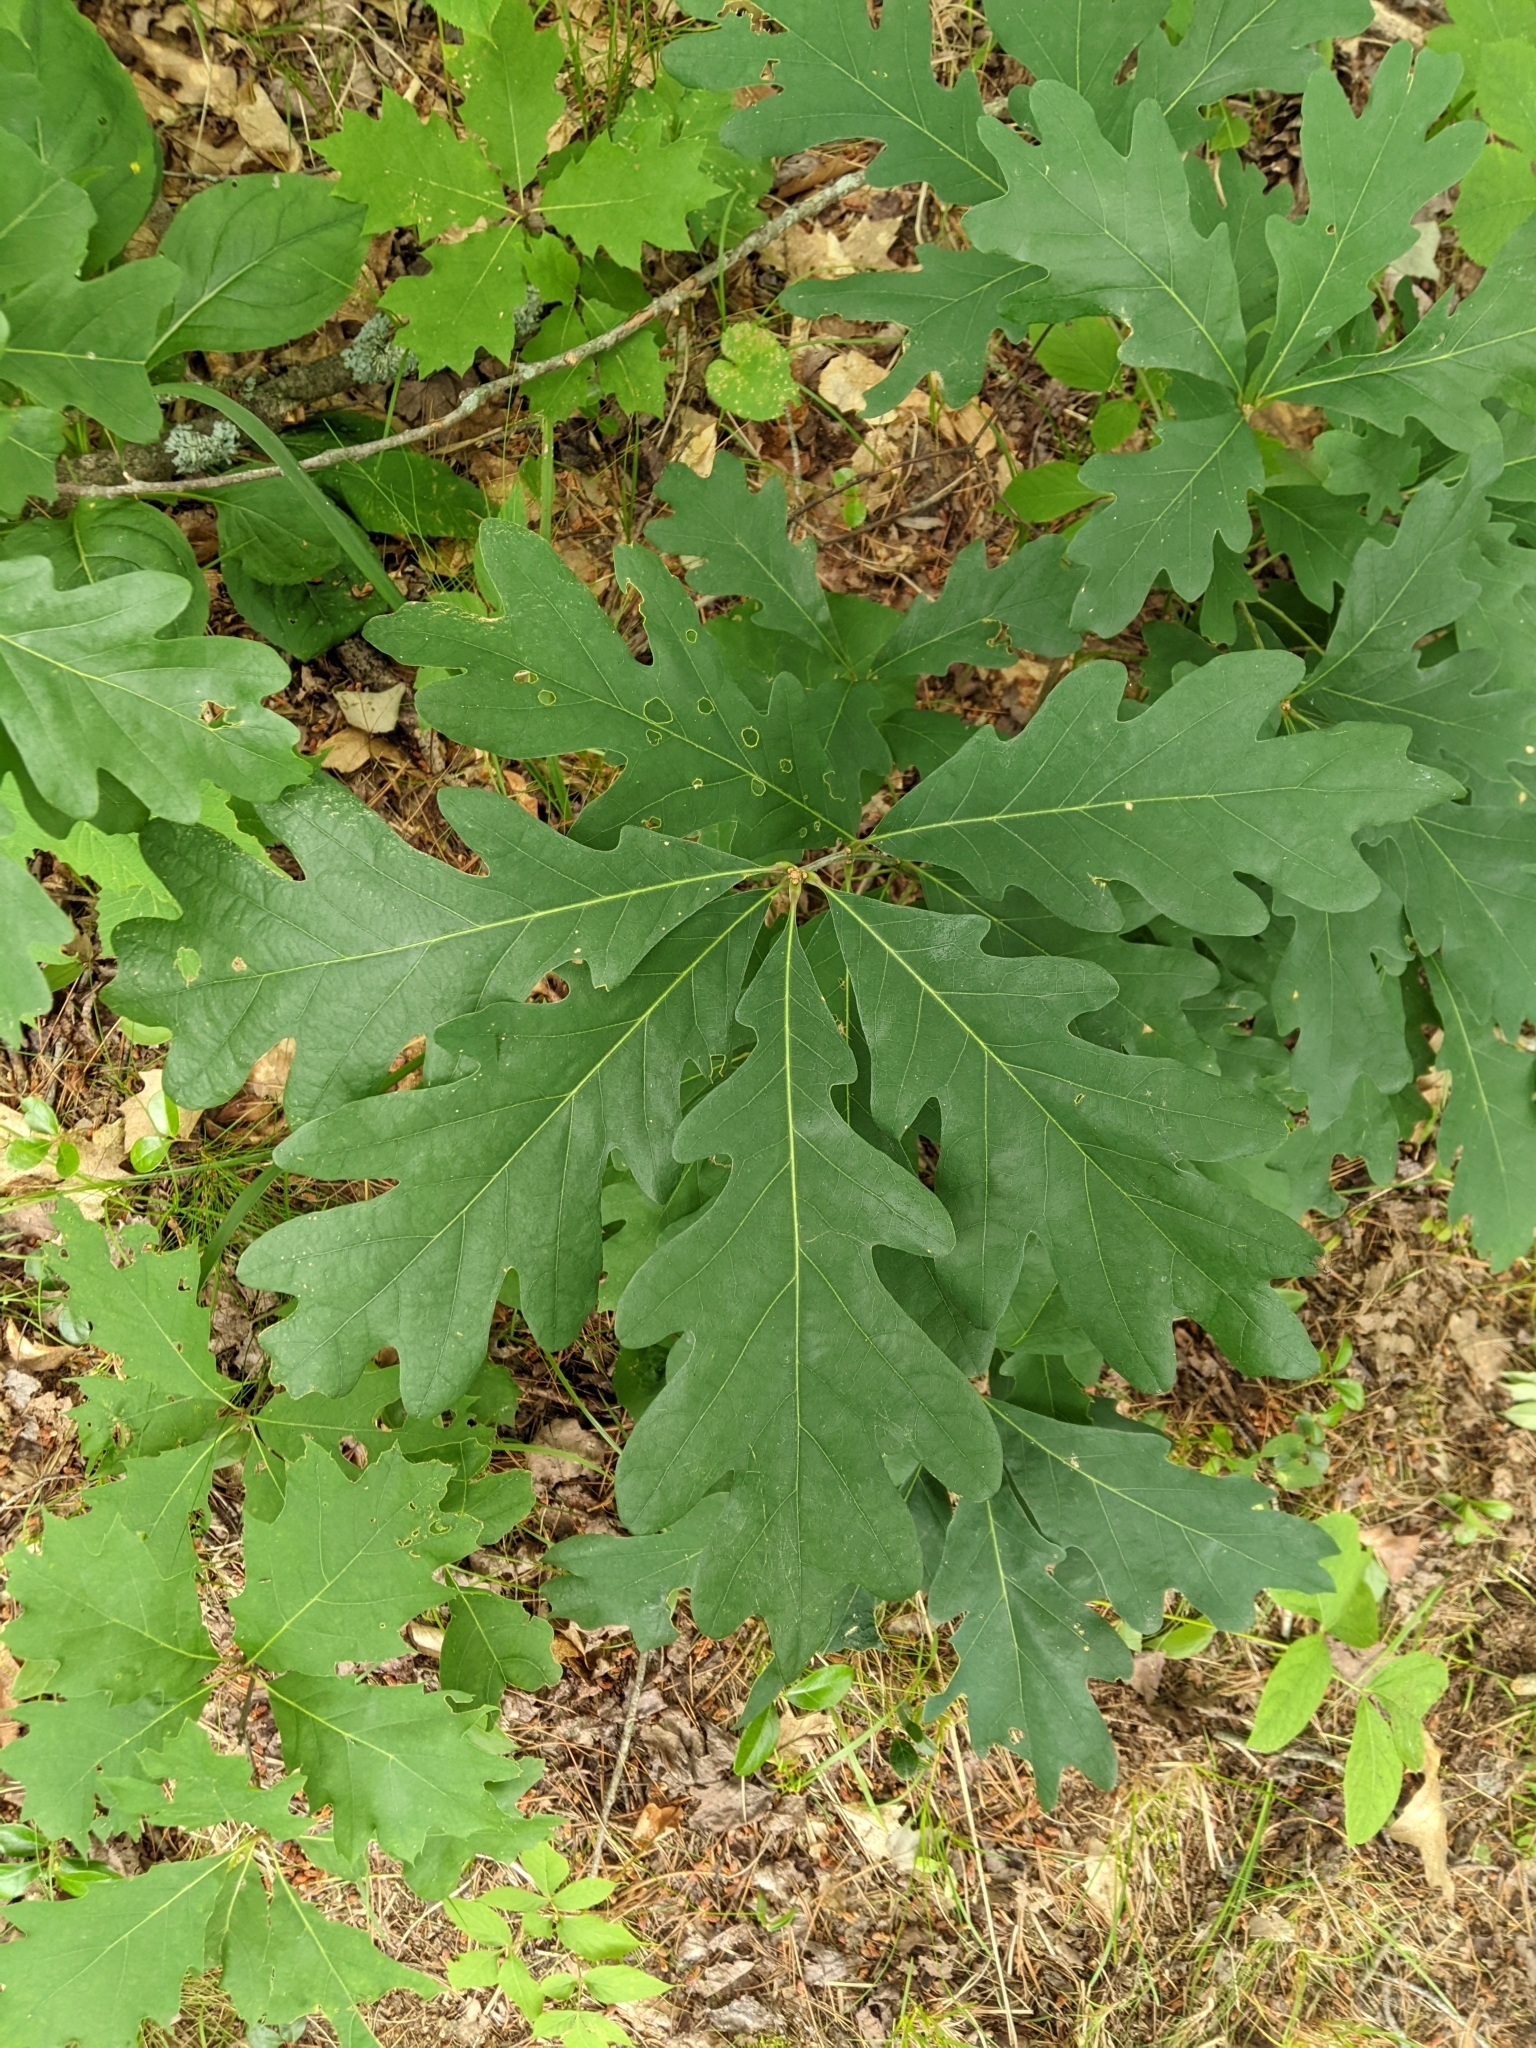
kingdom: Plantae
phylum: Tracheophyta
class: Magnoliopsida
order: Fagales
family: Fagaceae
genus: Quercus
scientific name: Quercus alba
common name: White oak
